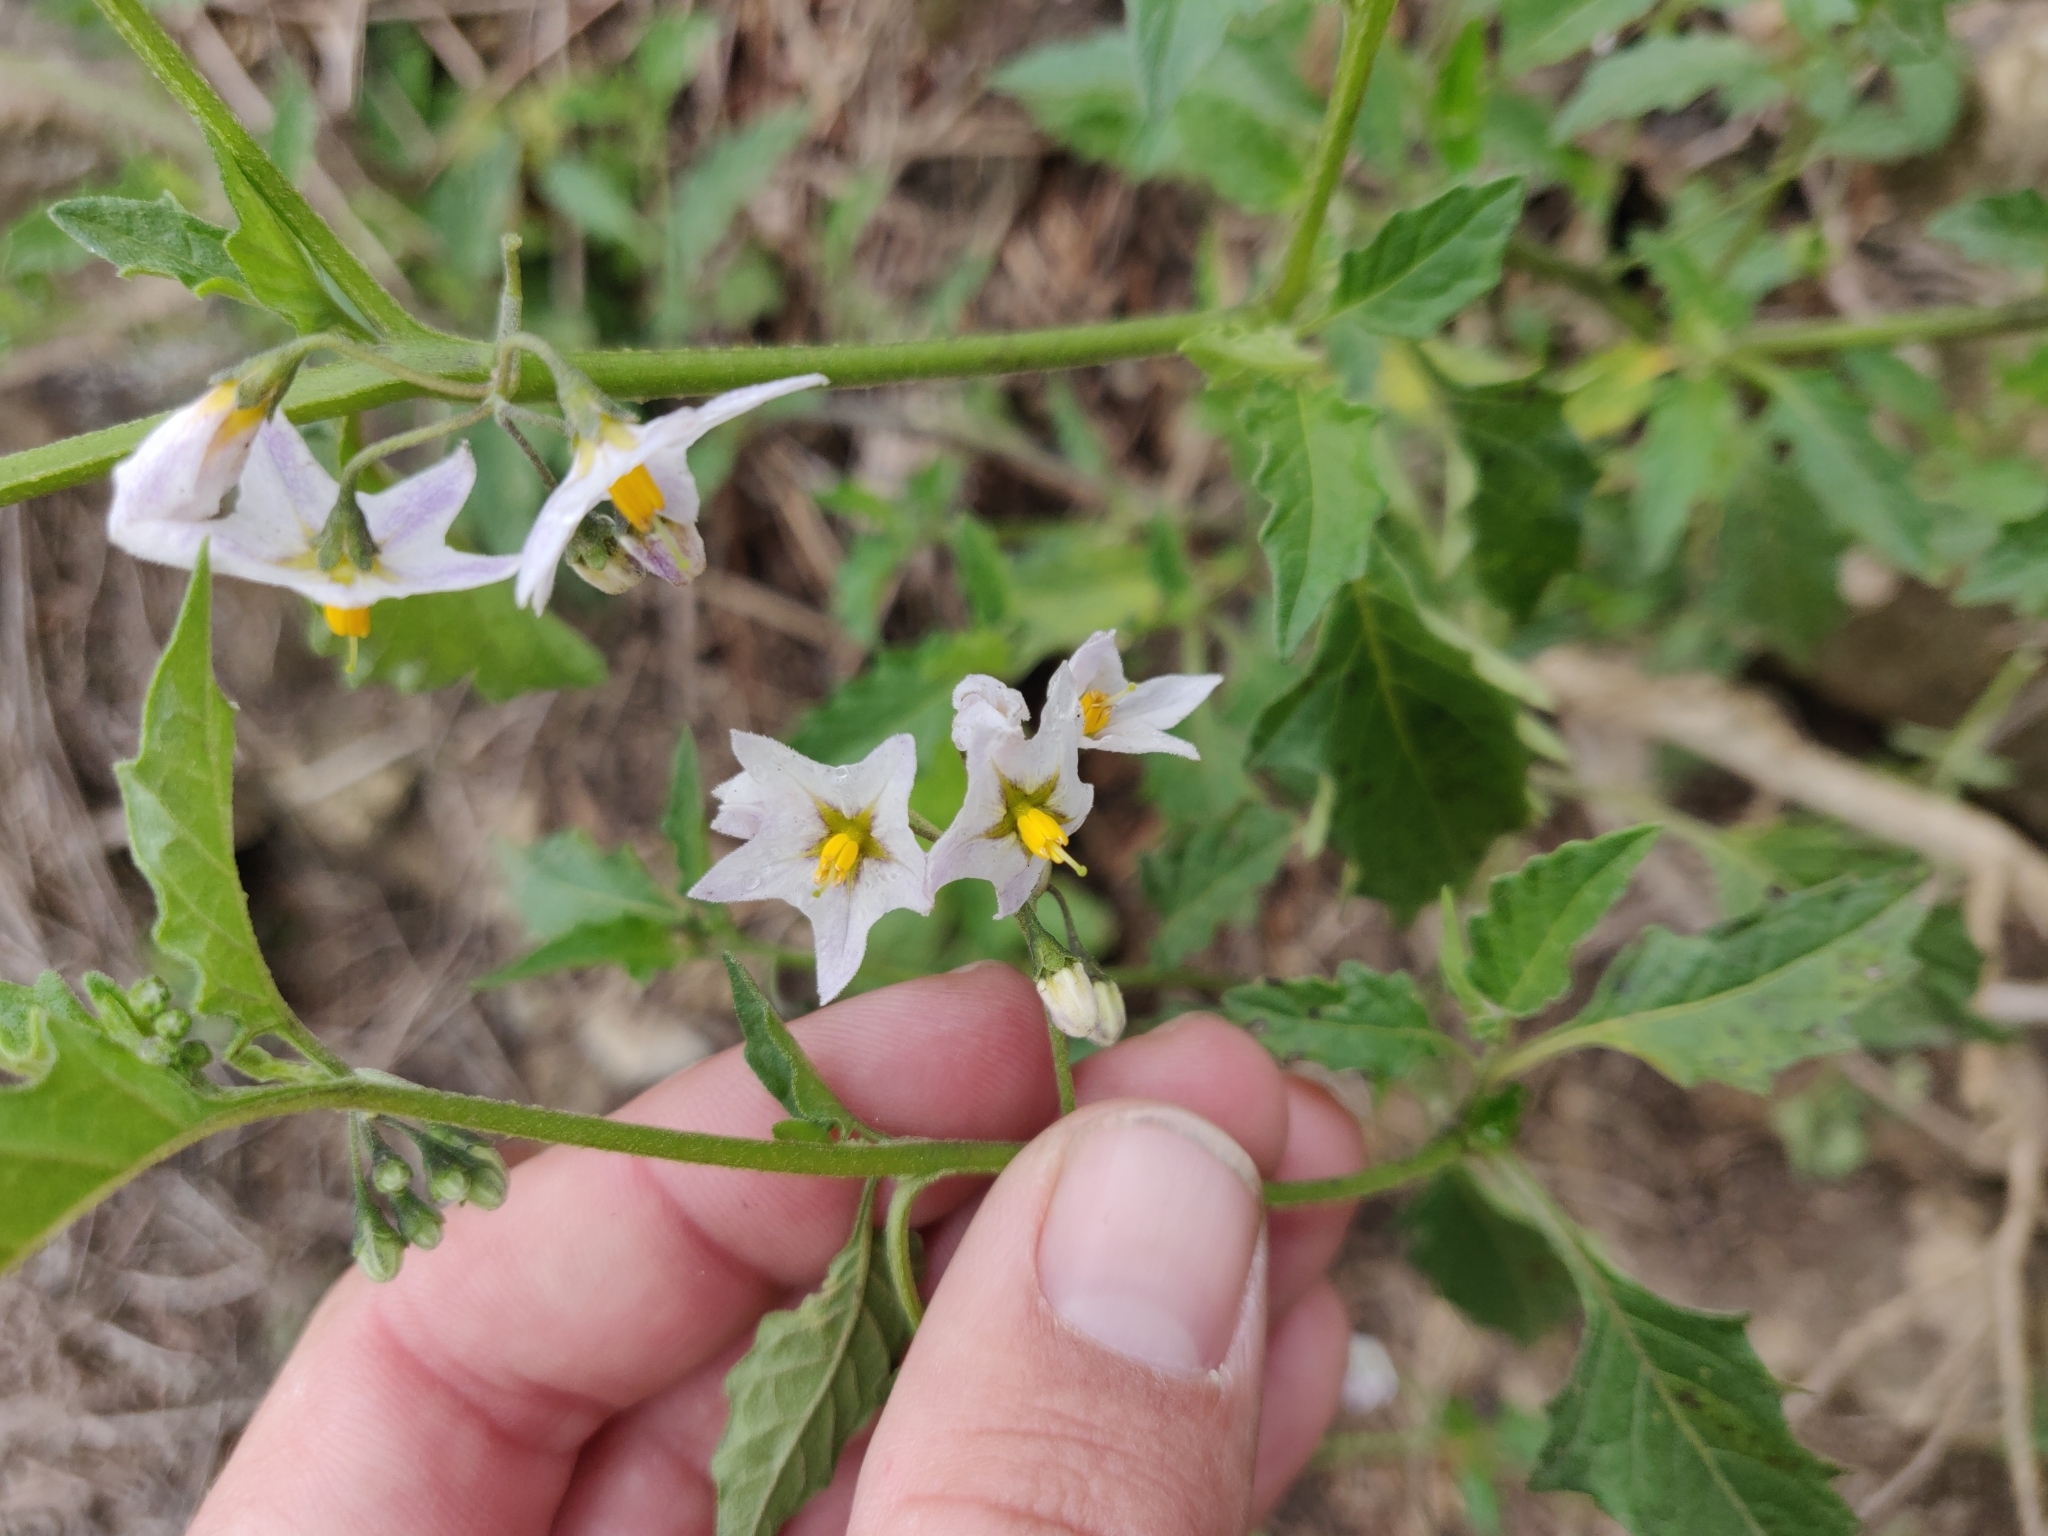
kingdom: Plantae
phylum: Tracheophyta
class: Magnoliopsida
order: Solanales
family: Solanaceae
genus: Solanum
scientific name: Solanum furcatum
